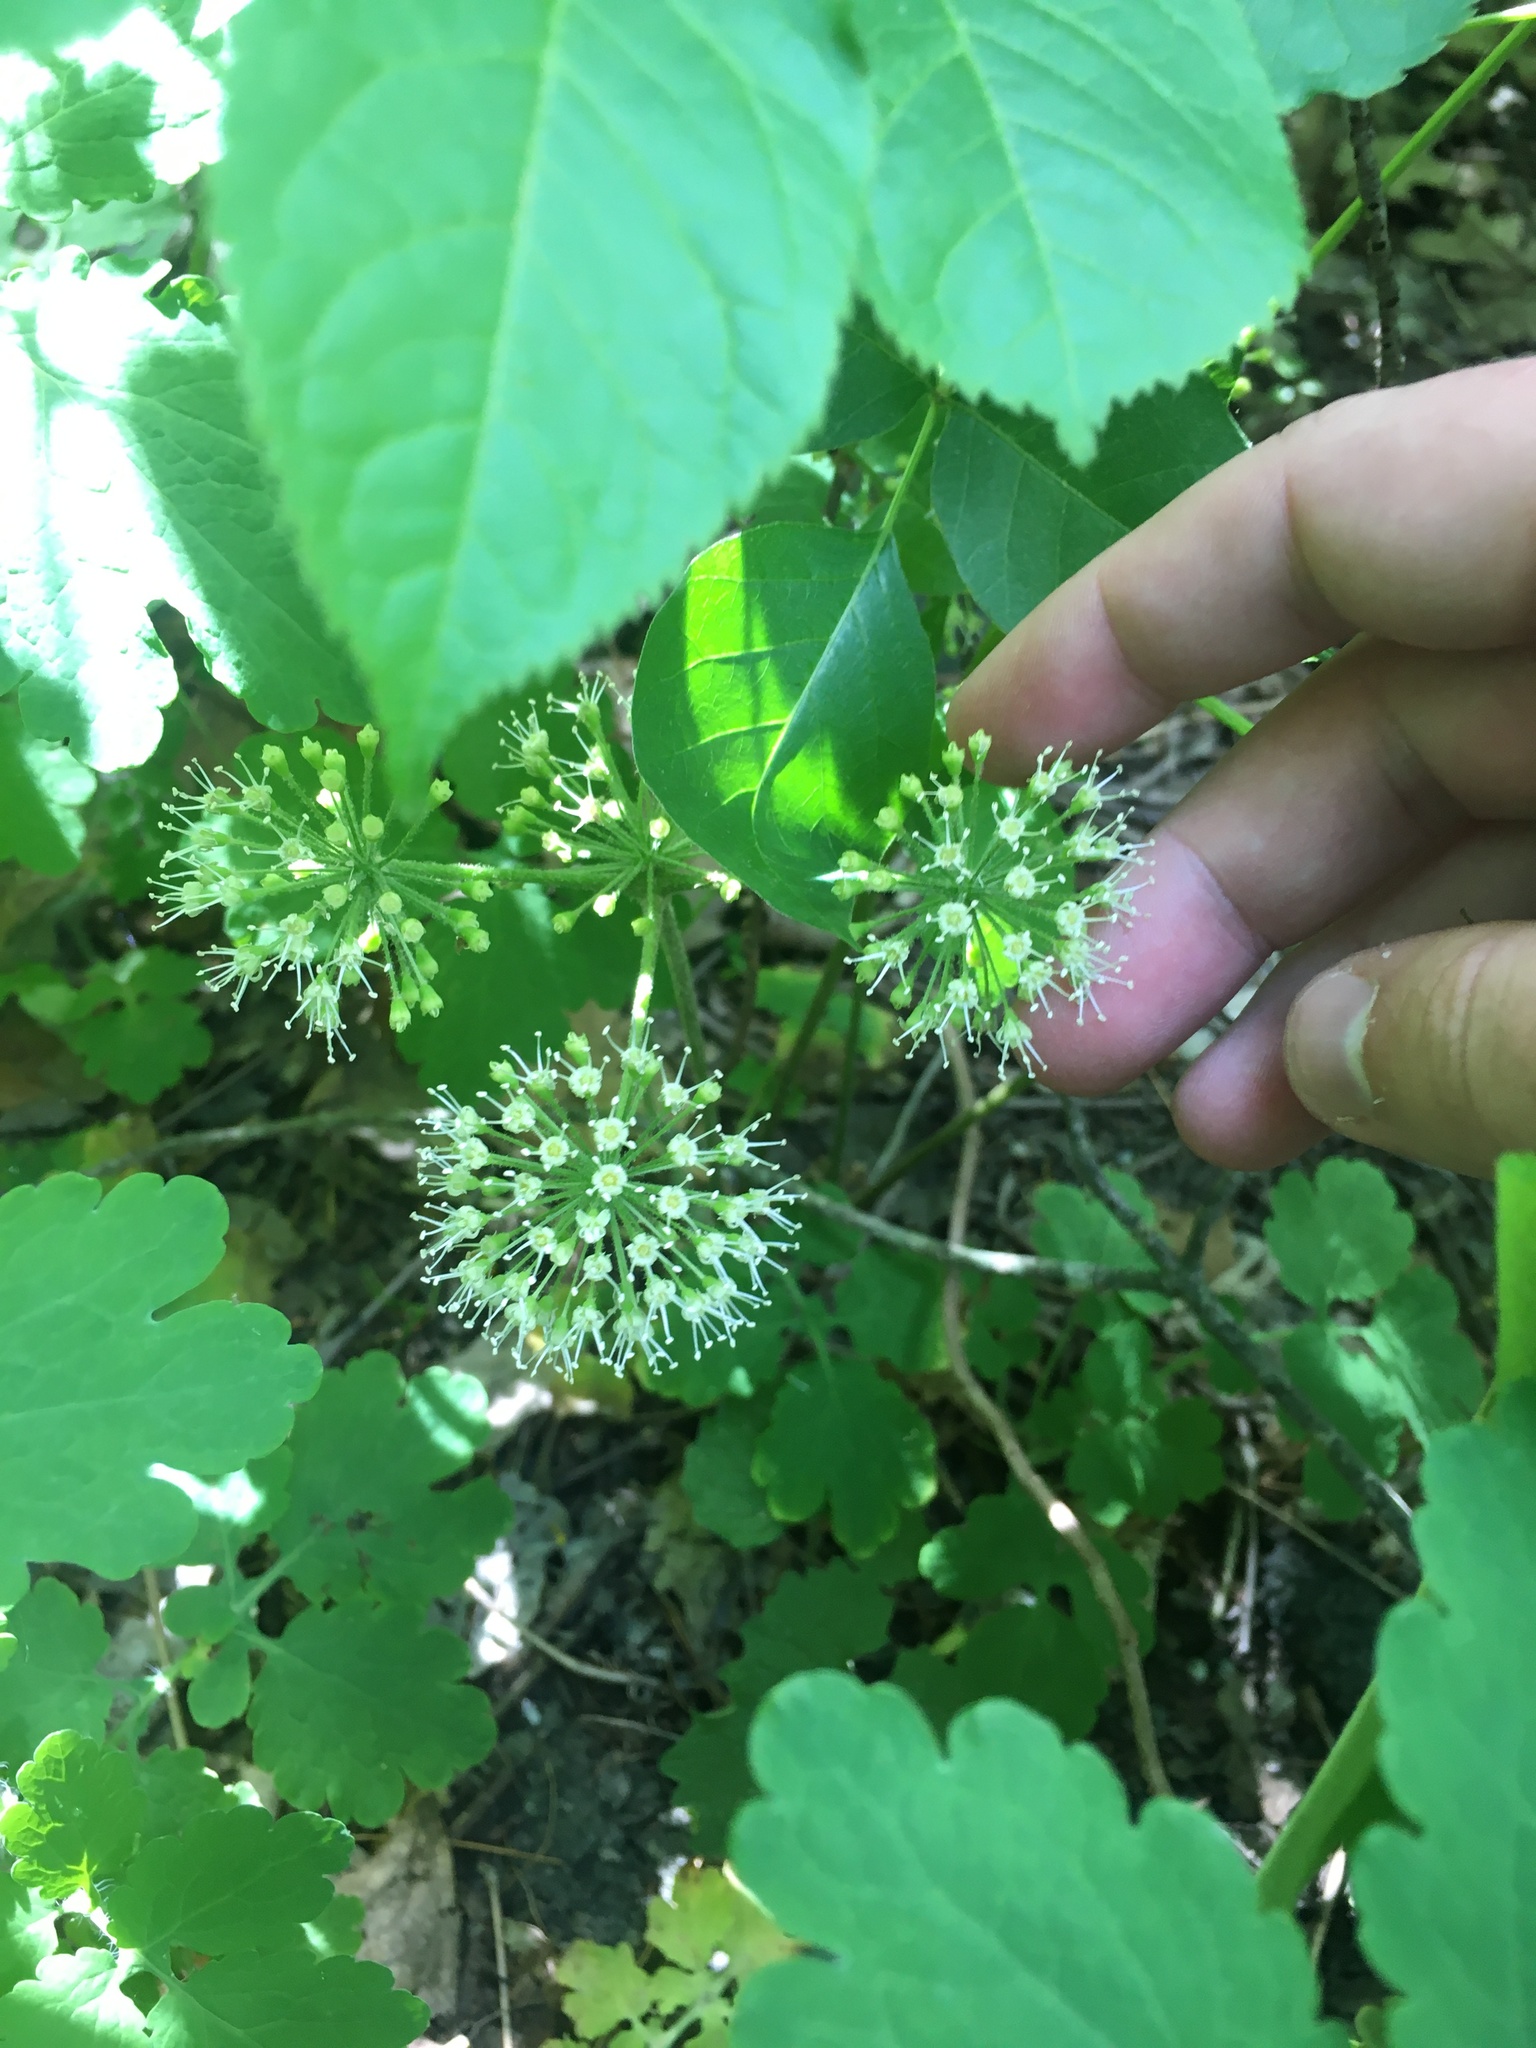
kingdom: Plantae
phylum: Tracheophyta
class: Magnoliopsida
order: Apiales
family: Araliaceae
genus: Aralia
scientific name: Aralia nudicaulis
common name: Wild sarsaparilla
